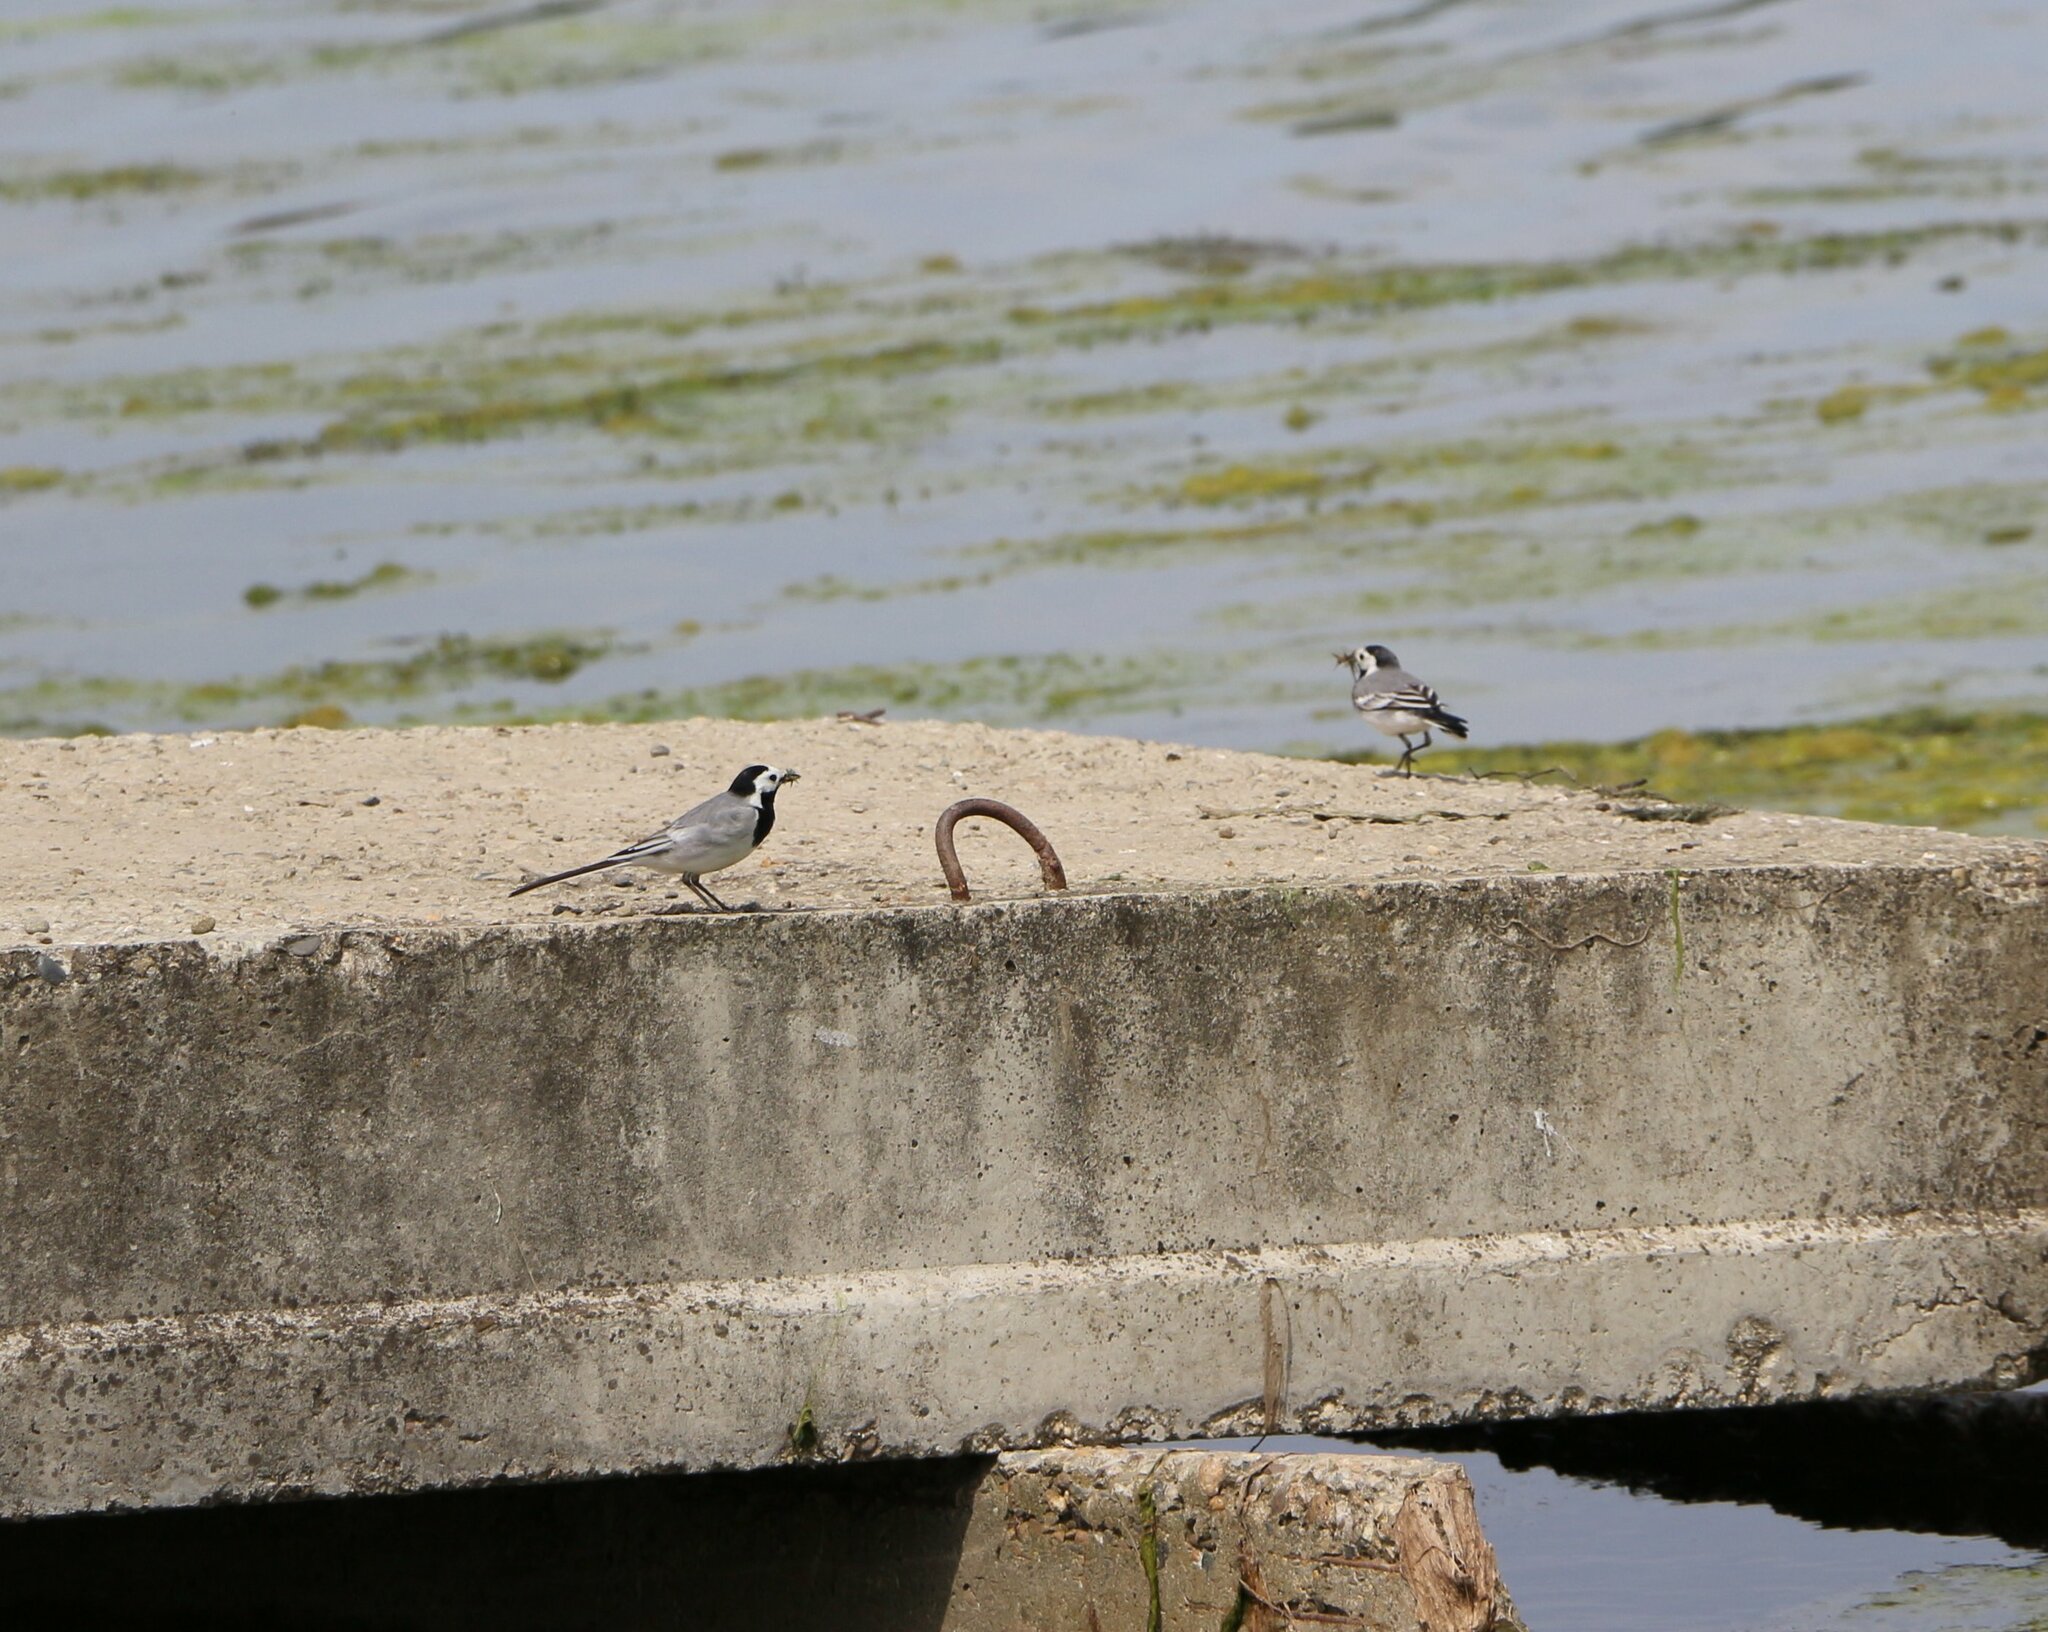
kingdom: Animalia
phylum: Chordata
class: Aves
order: Passeriformes
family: Motacillidae
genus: Motacilla
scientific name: Motacilla alba
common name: White wagtail
